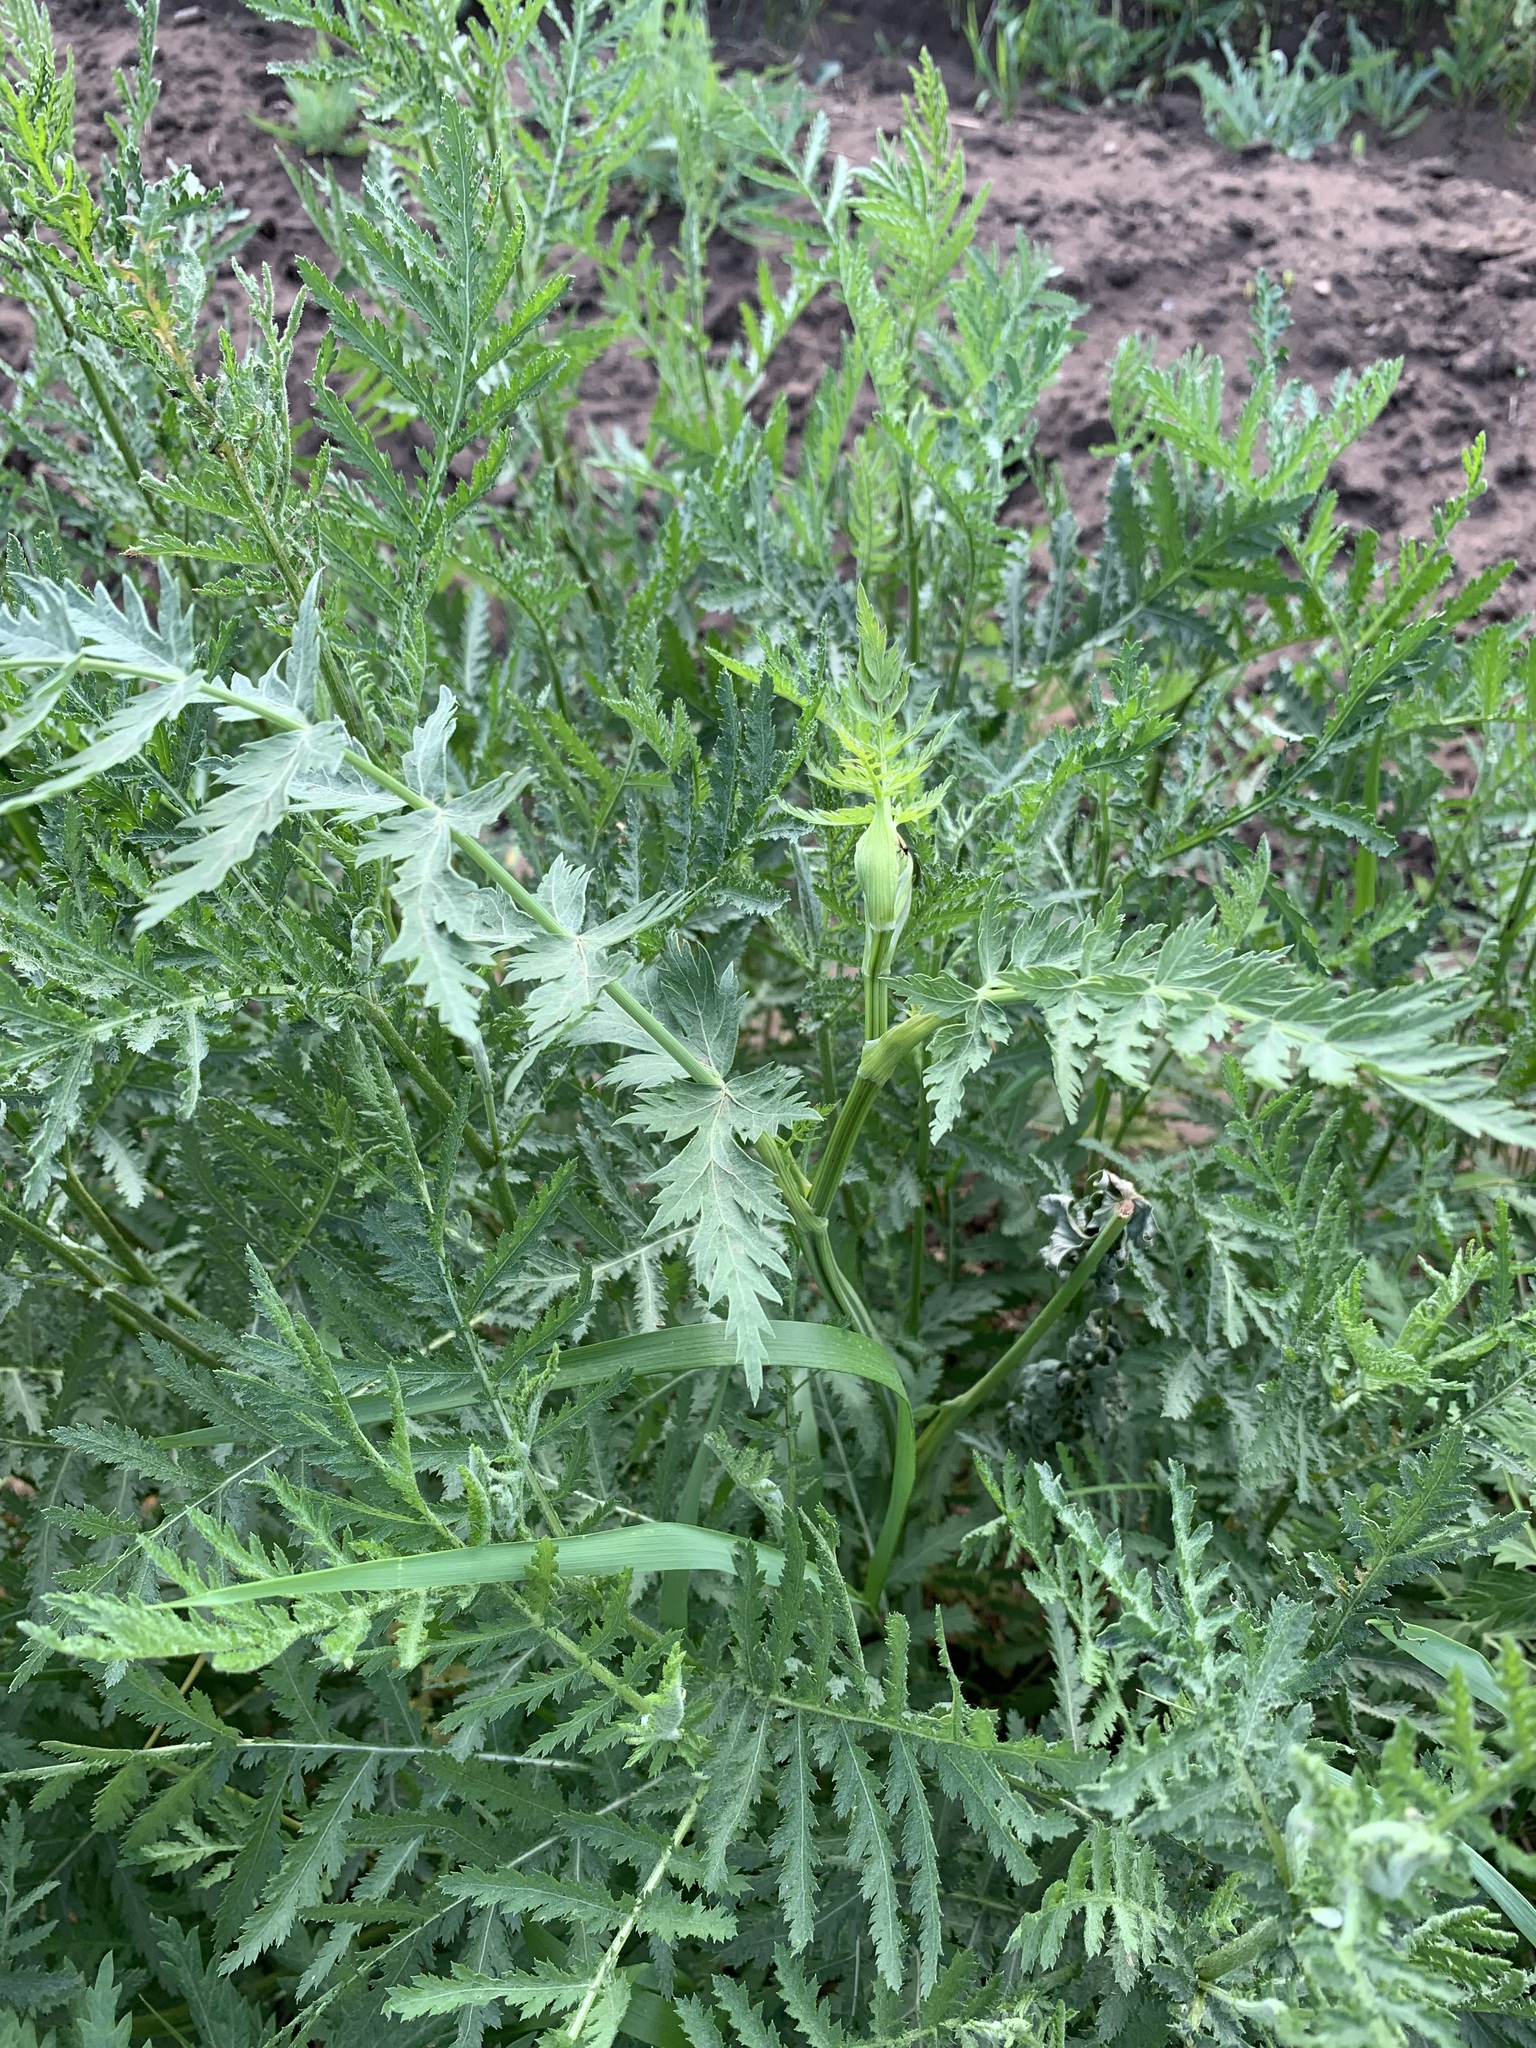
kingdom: Plantae
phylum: Tracheophyta
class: Magnoliopsida
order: Apiales
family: Apiaceae
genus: Seseli
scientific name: Seseli libanotis
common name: Mooncarrot
